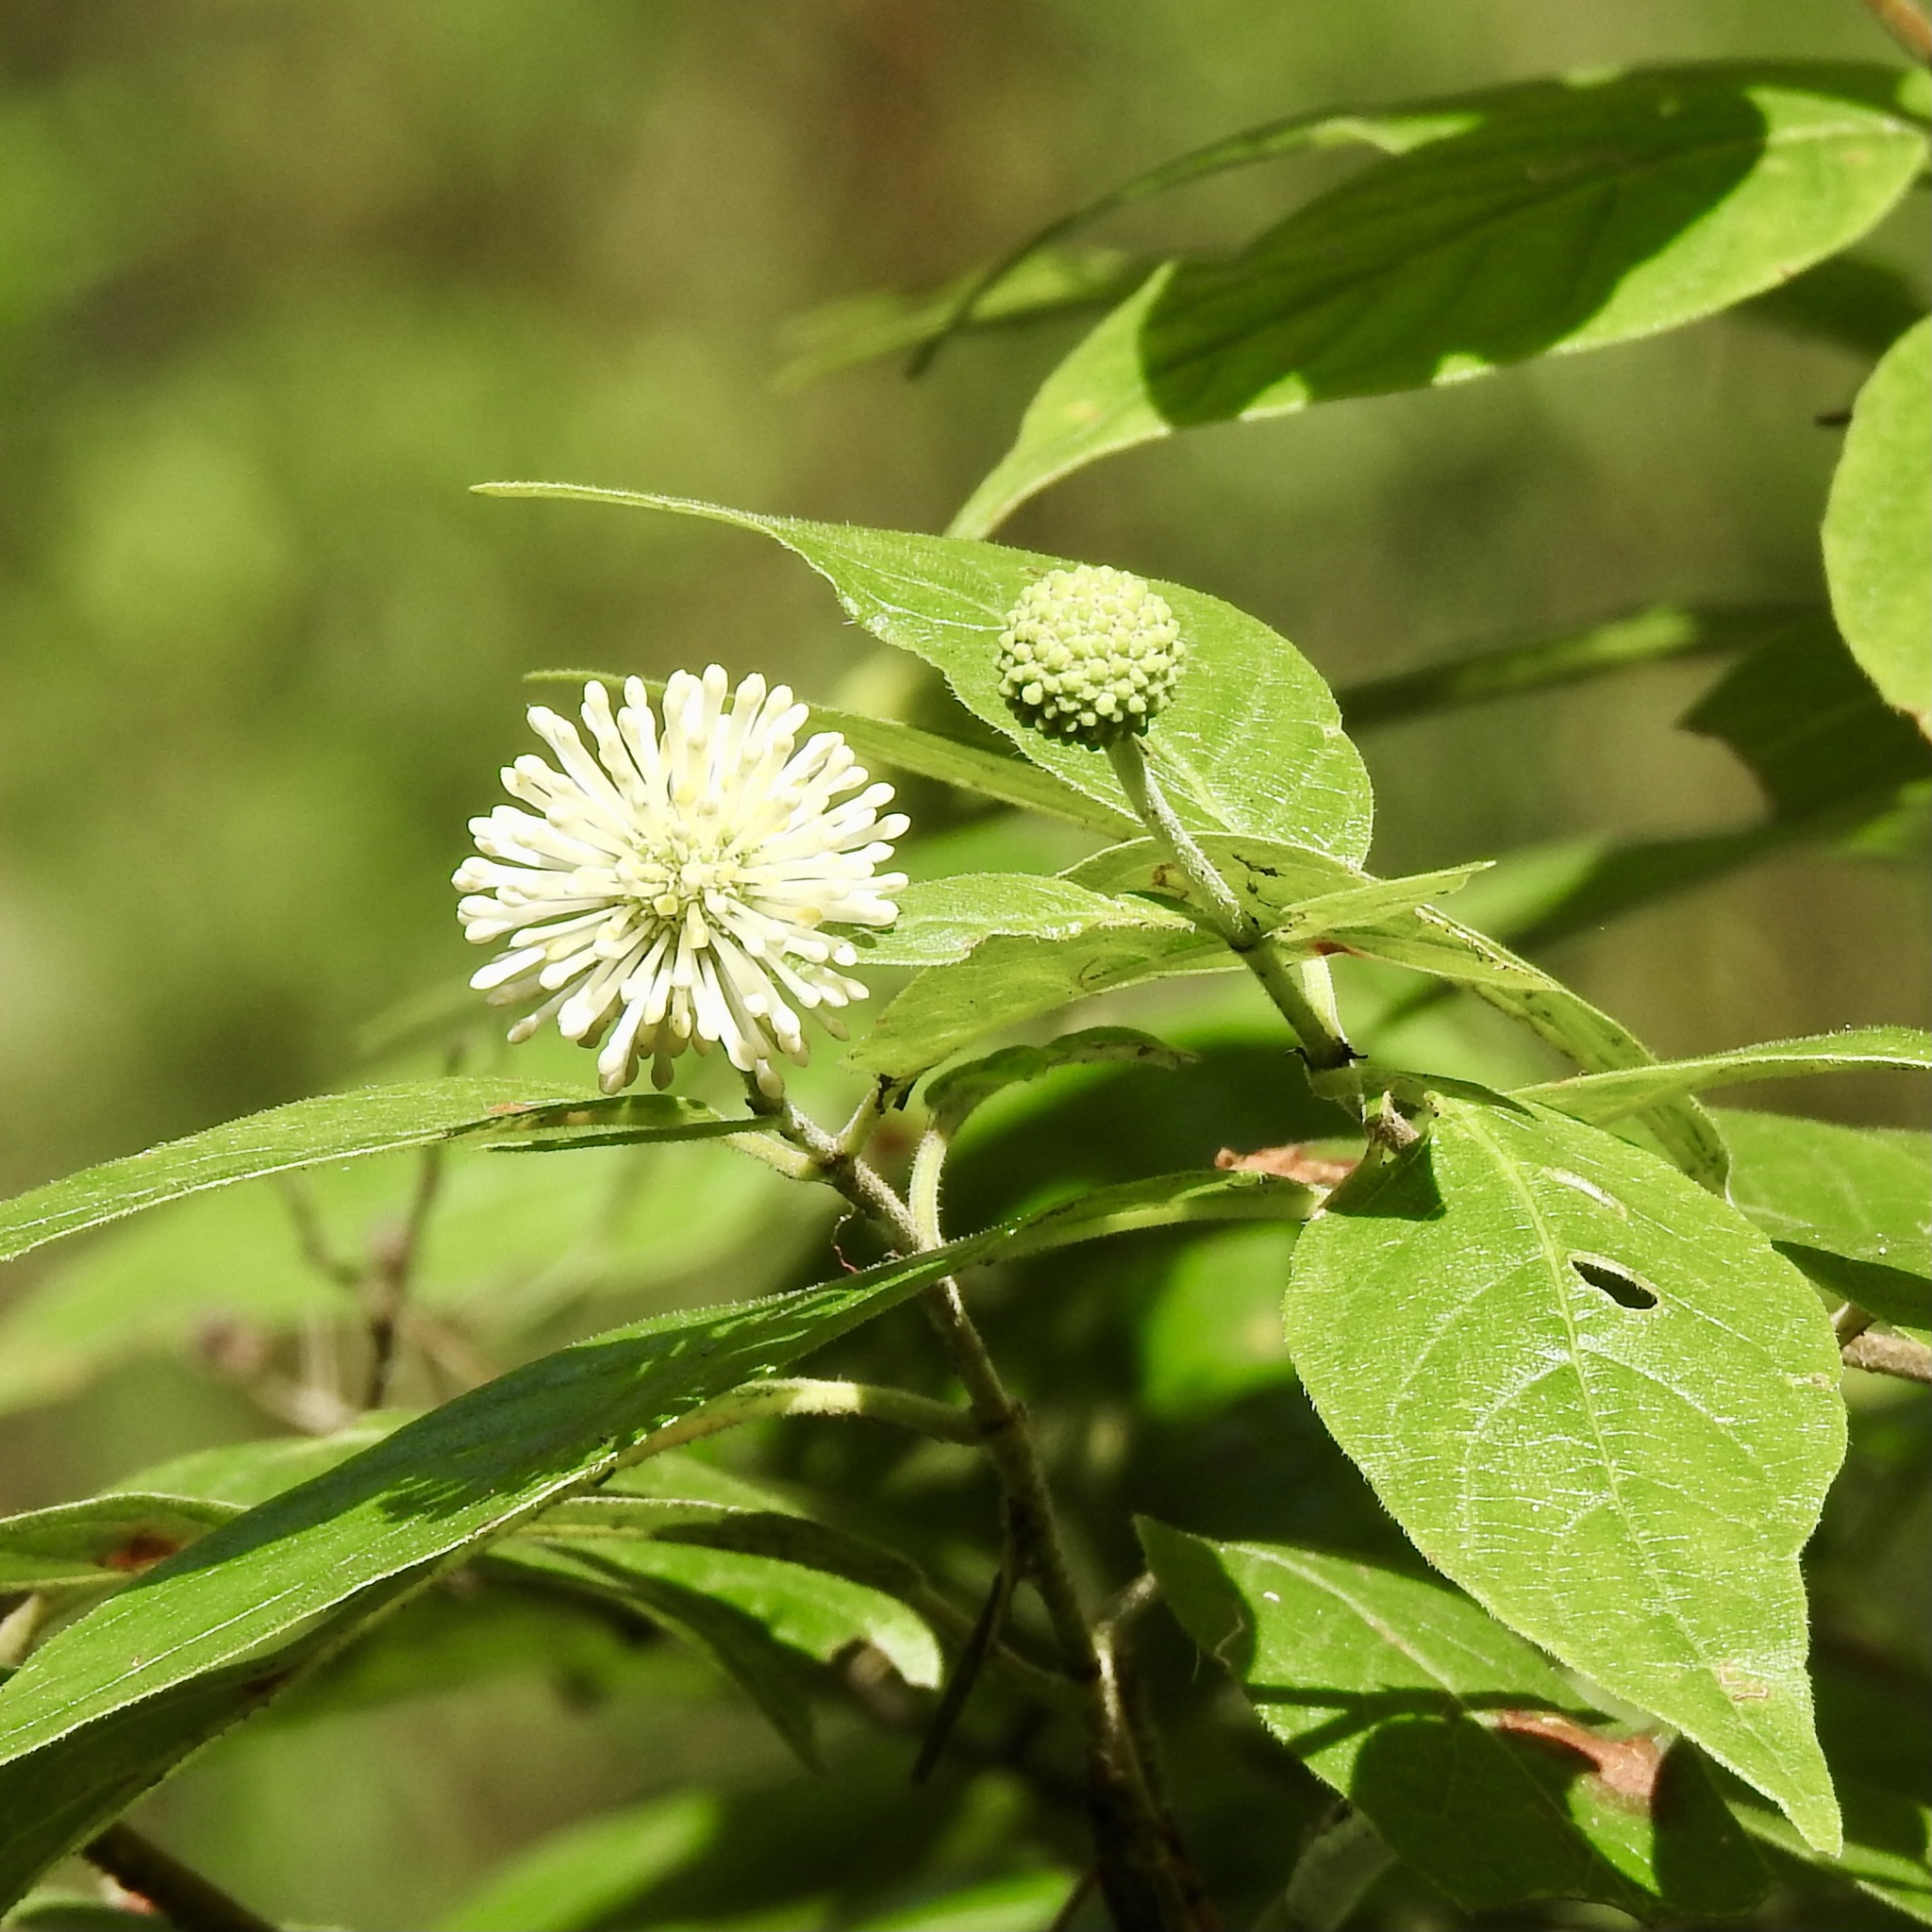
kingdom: Plantae
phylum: Tracheophyta
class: Magnoliopsida
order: Gentianales
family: Rubiaceae
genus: Cephalanthus
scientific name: Cephalanthus occidentalis
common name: Button-willow
